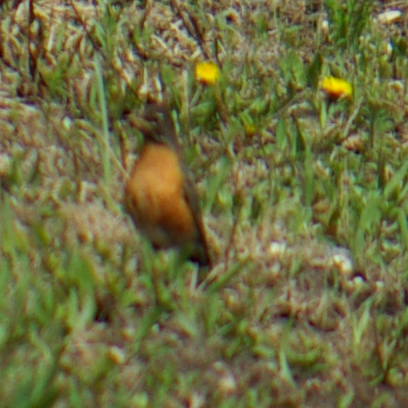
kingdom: Animalia
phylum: Chordata
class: Aves
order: Passeriformes
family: Turdidae
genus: Turdus
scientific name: Turdus migratorius
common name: American robin
